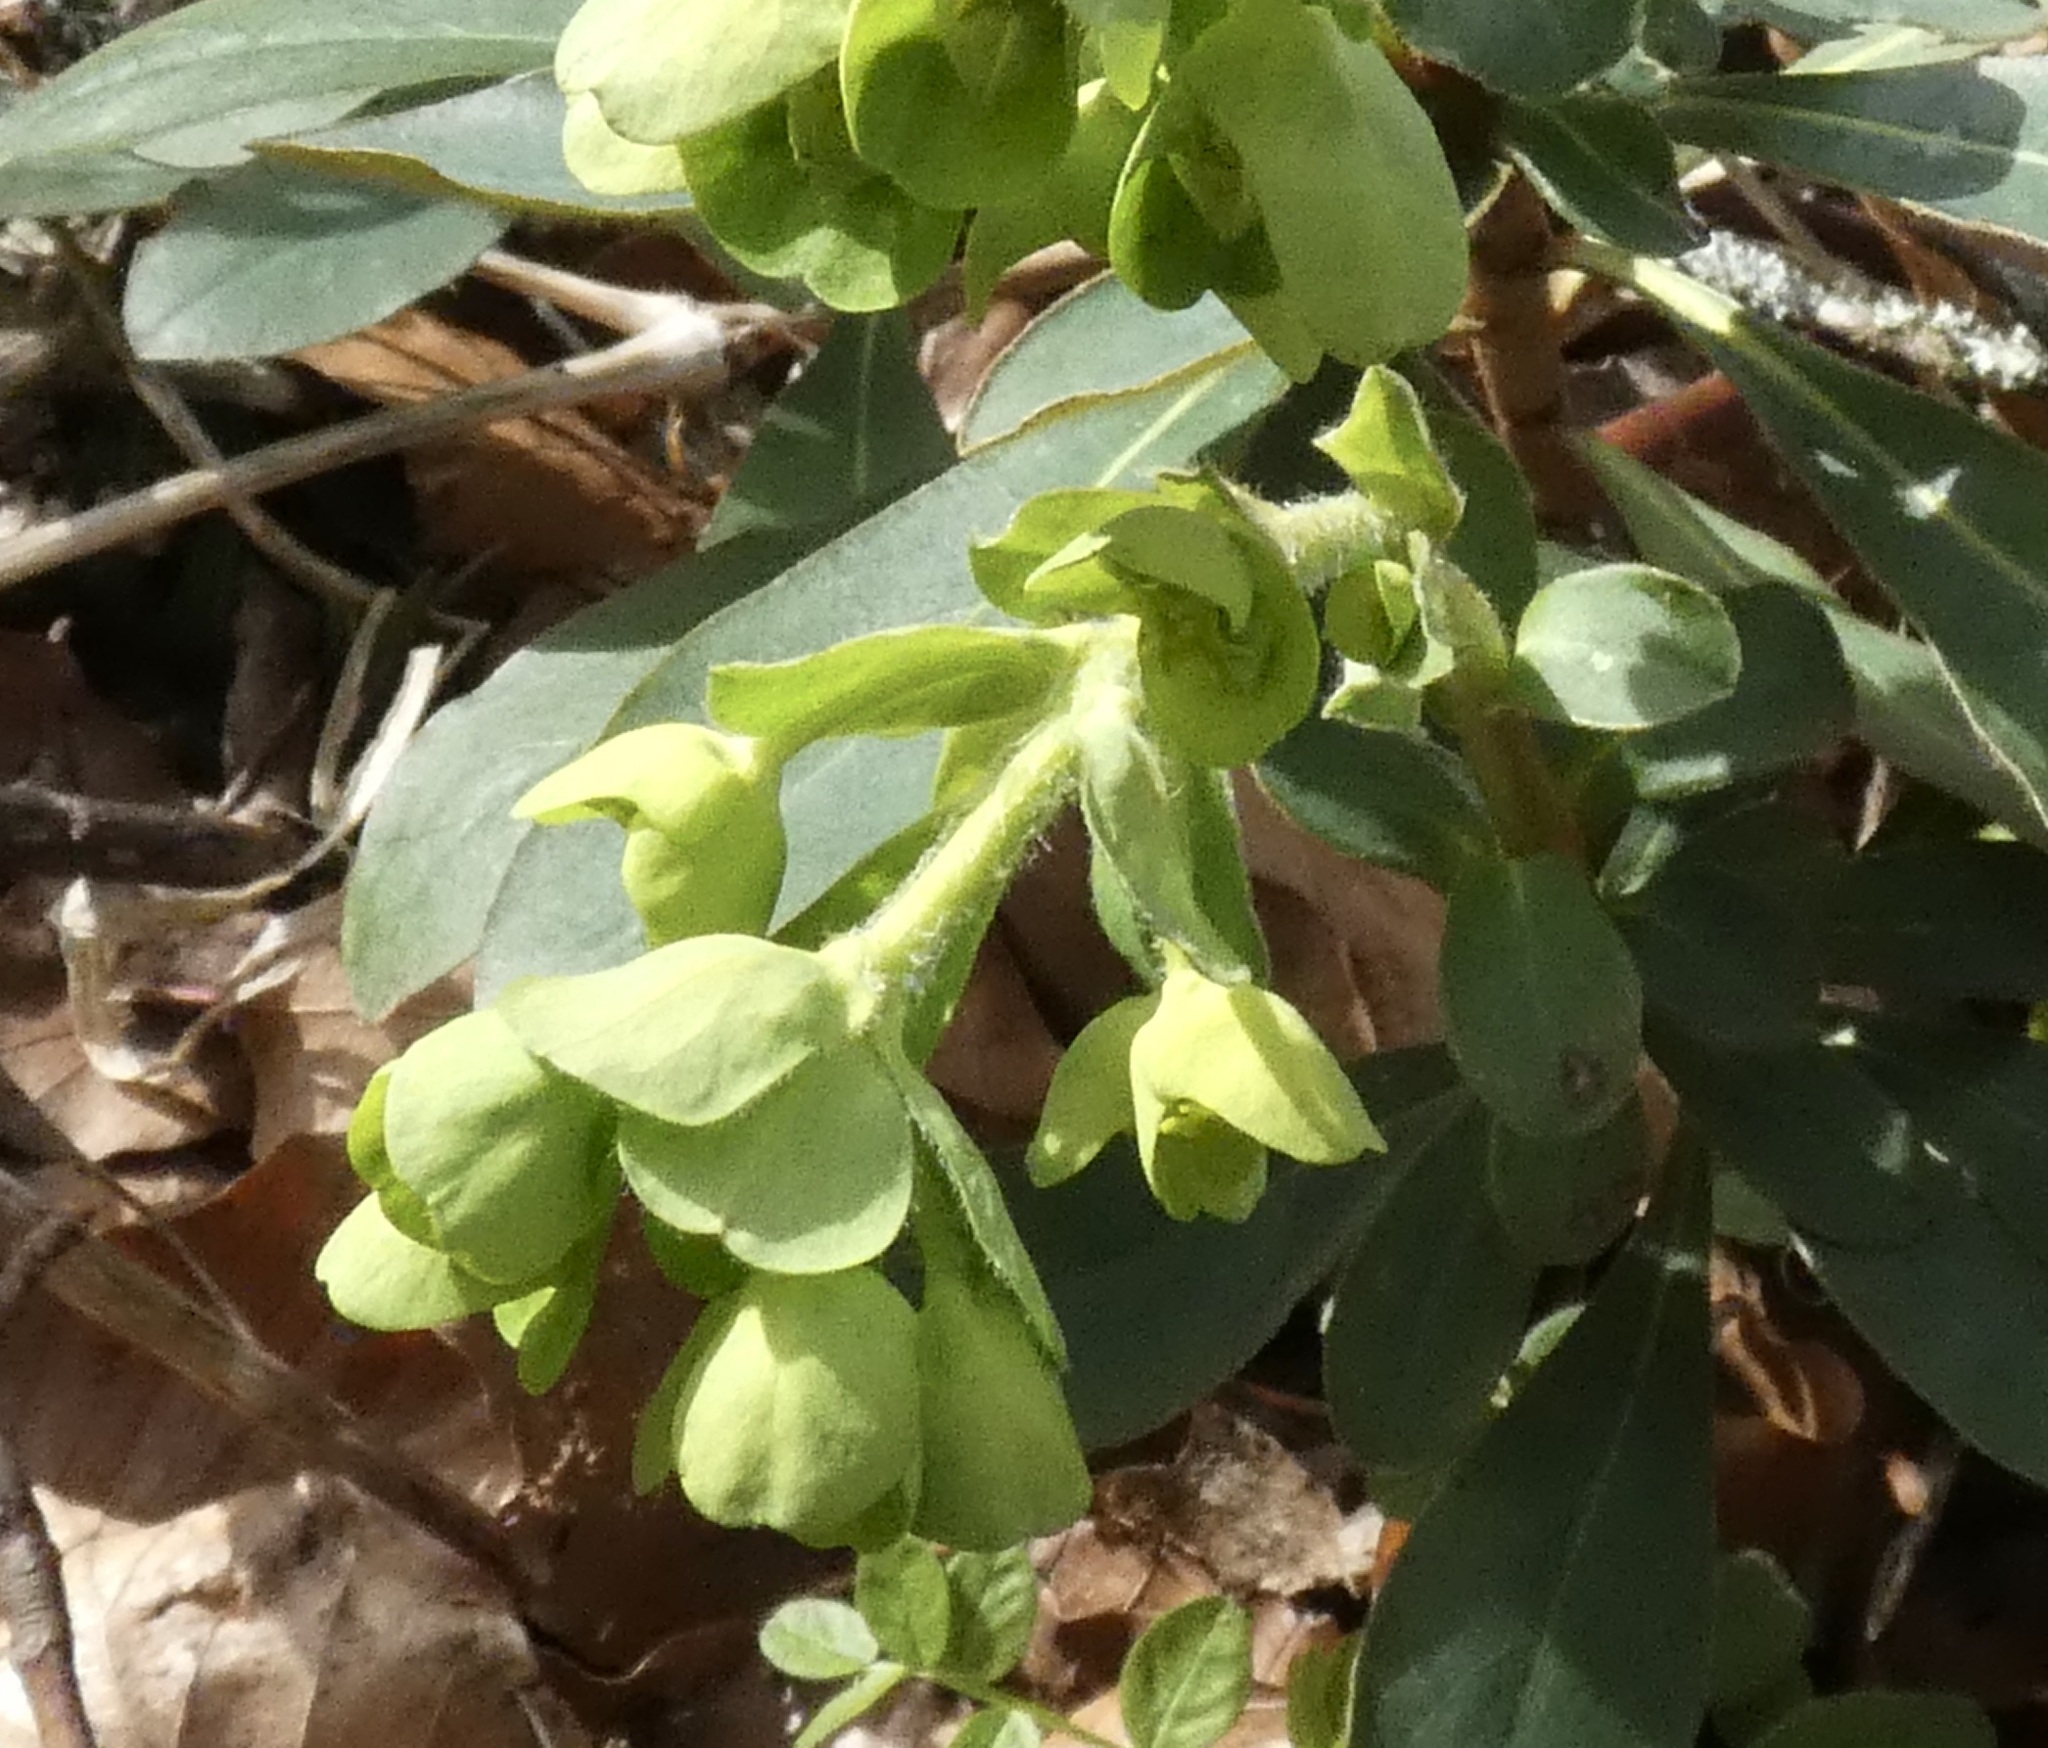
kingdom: Plantae
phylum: Tracheophyta
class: Magnoliopsida
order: Malpighiales
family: Euphorbiaceae
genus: Euphorbia
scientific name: Euphorbia amygdaloides
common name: Wood spurge
